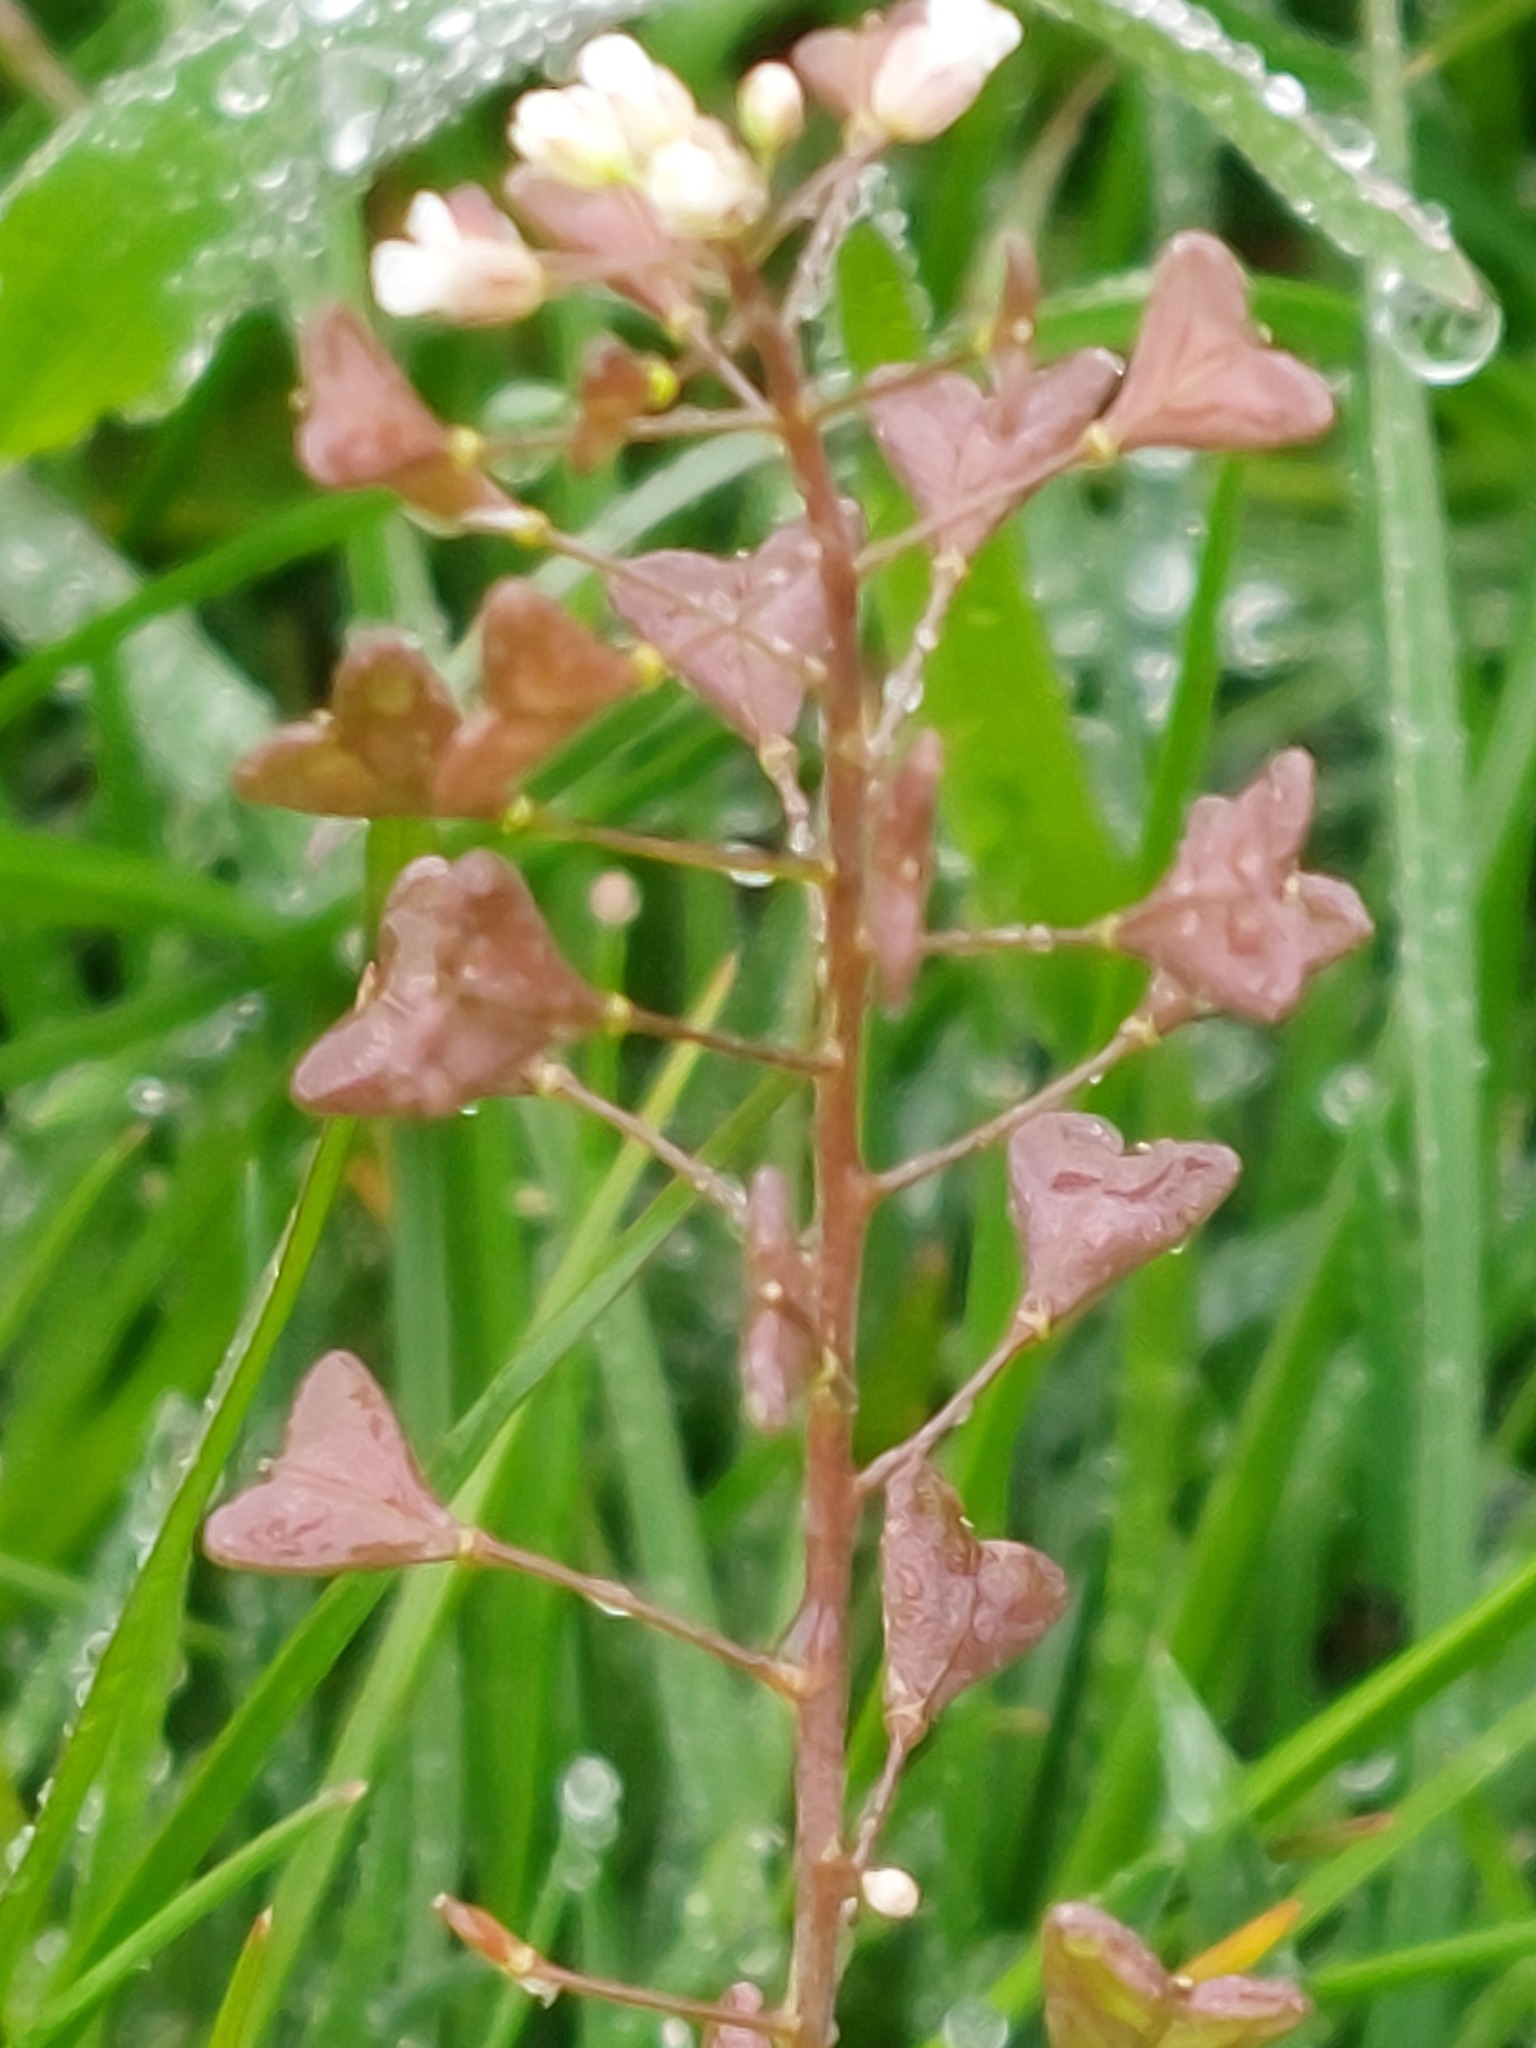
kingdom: Plantae
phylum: Tracheophyta
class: Magnoliopsida
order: Brassicales
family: Brassicaceae
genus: Capsella
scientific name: Capsella bursa-pastoris
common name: Shepherd's purse
